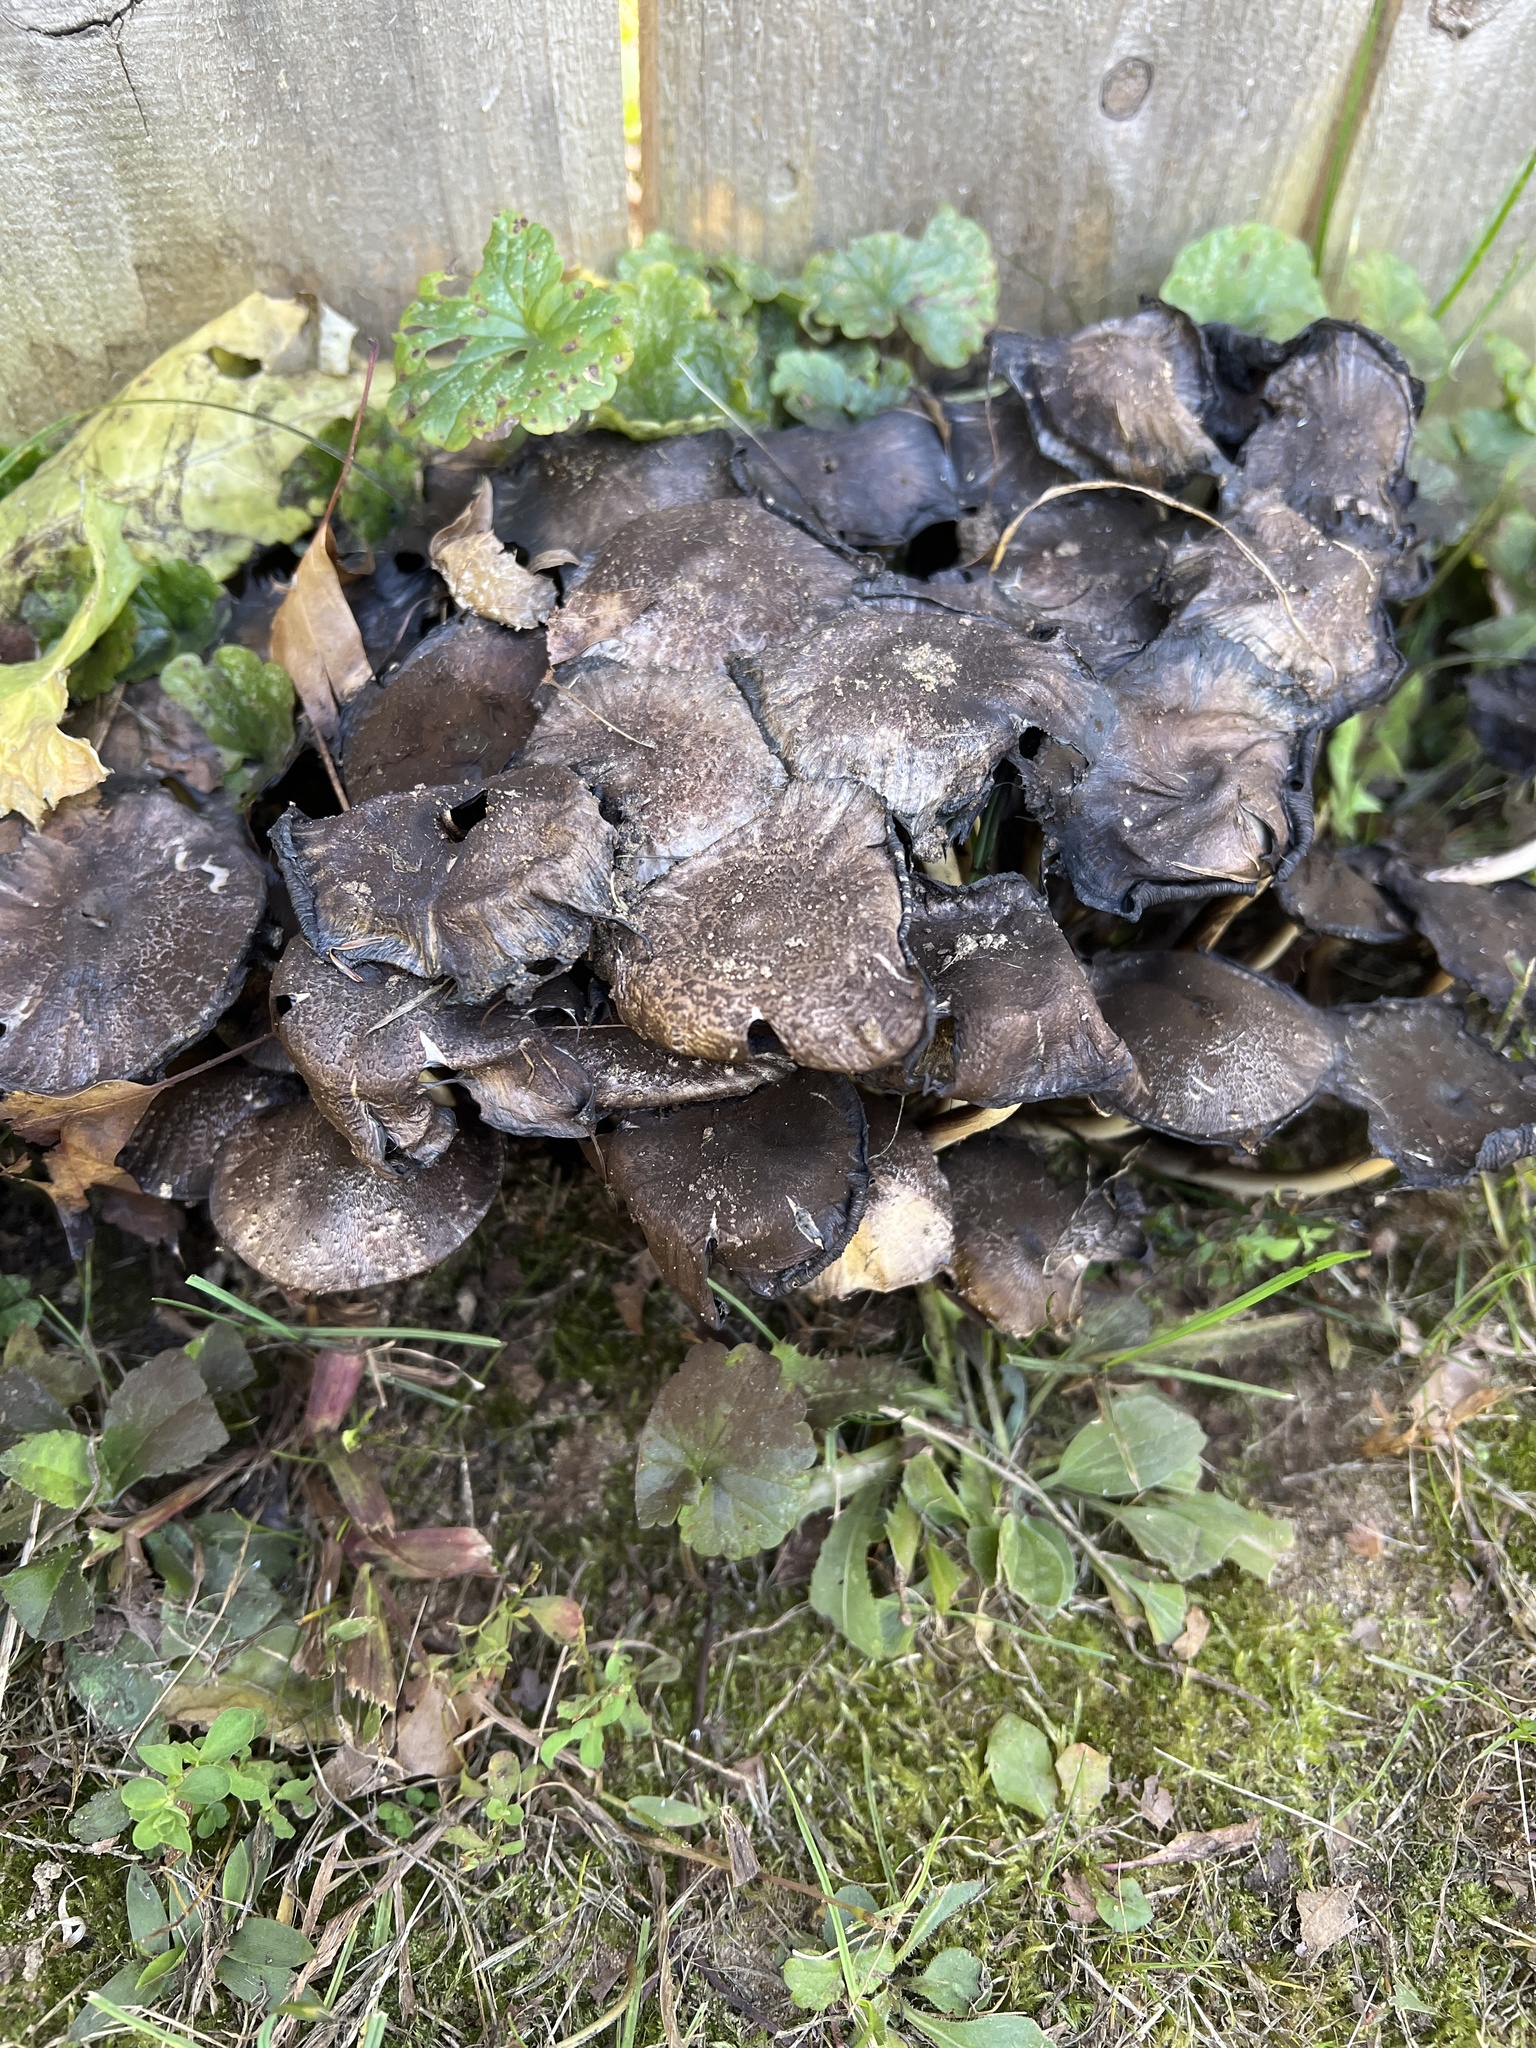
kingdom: Fungi
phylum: Basidiomycota
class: Agaricomycetes
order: Agaricales
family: Psathyrellaceae
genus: Coprinopsis
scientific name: Coprinopsis romagnesiana
